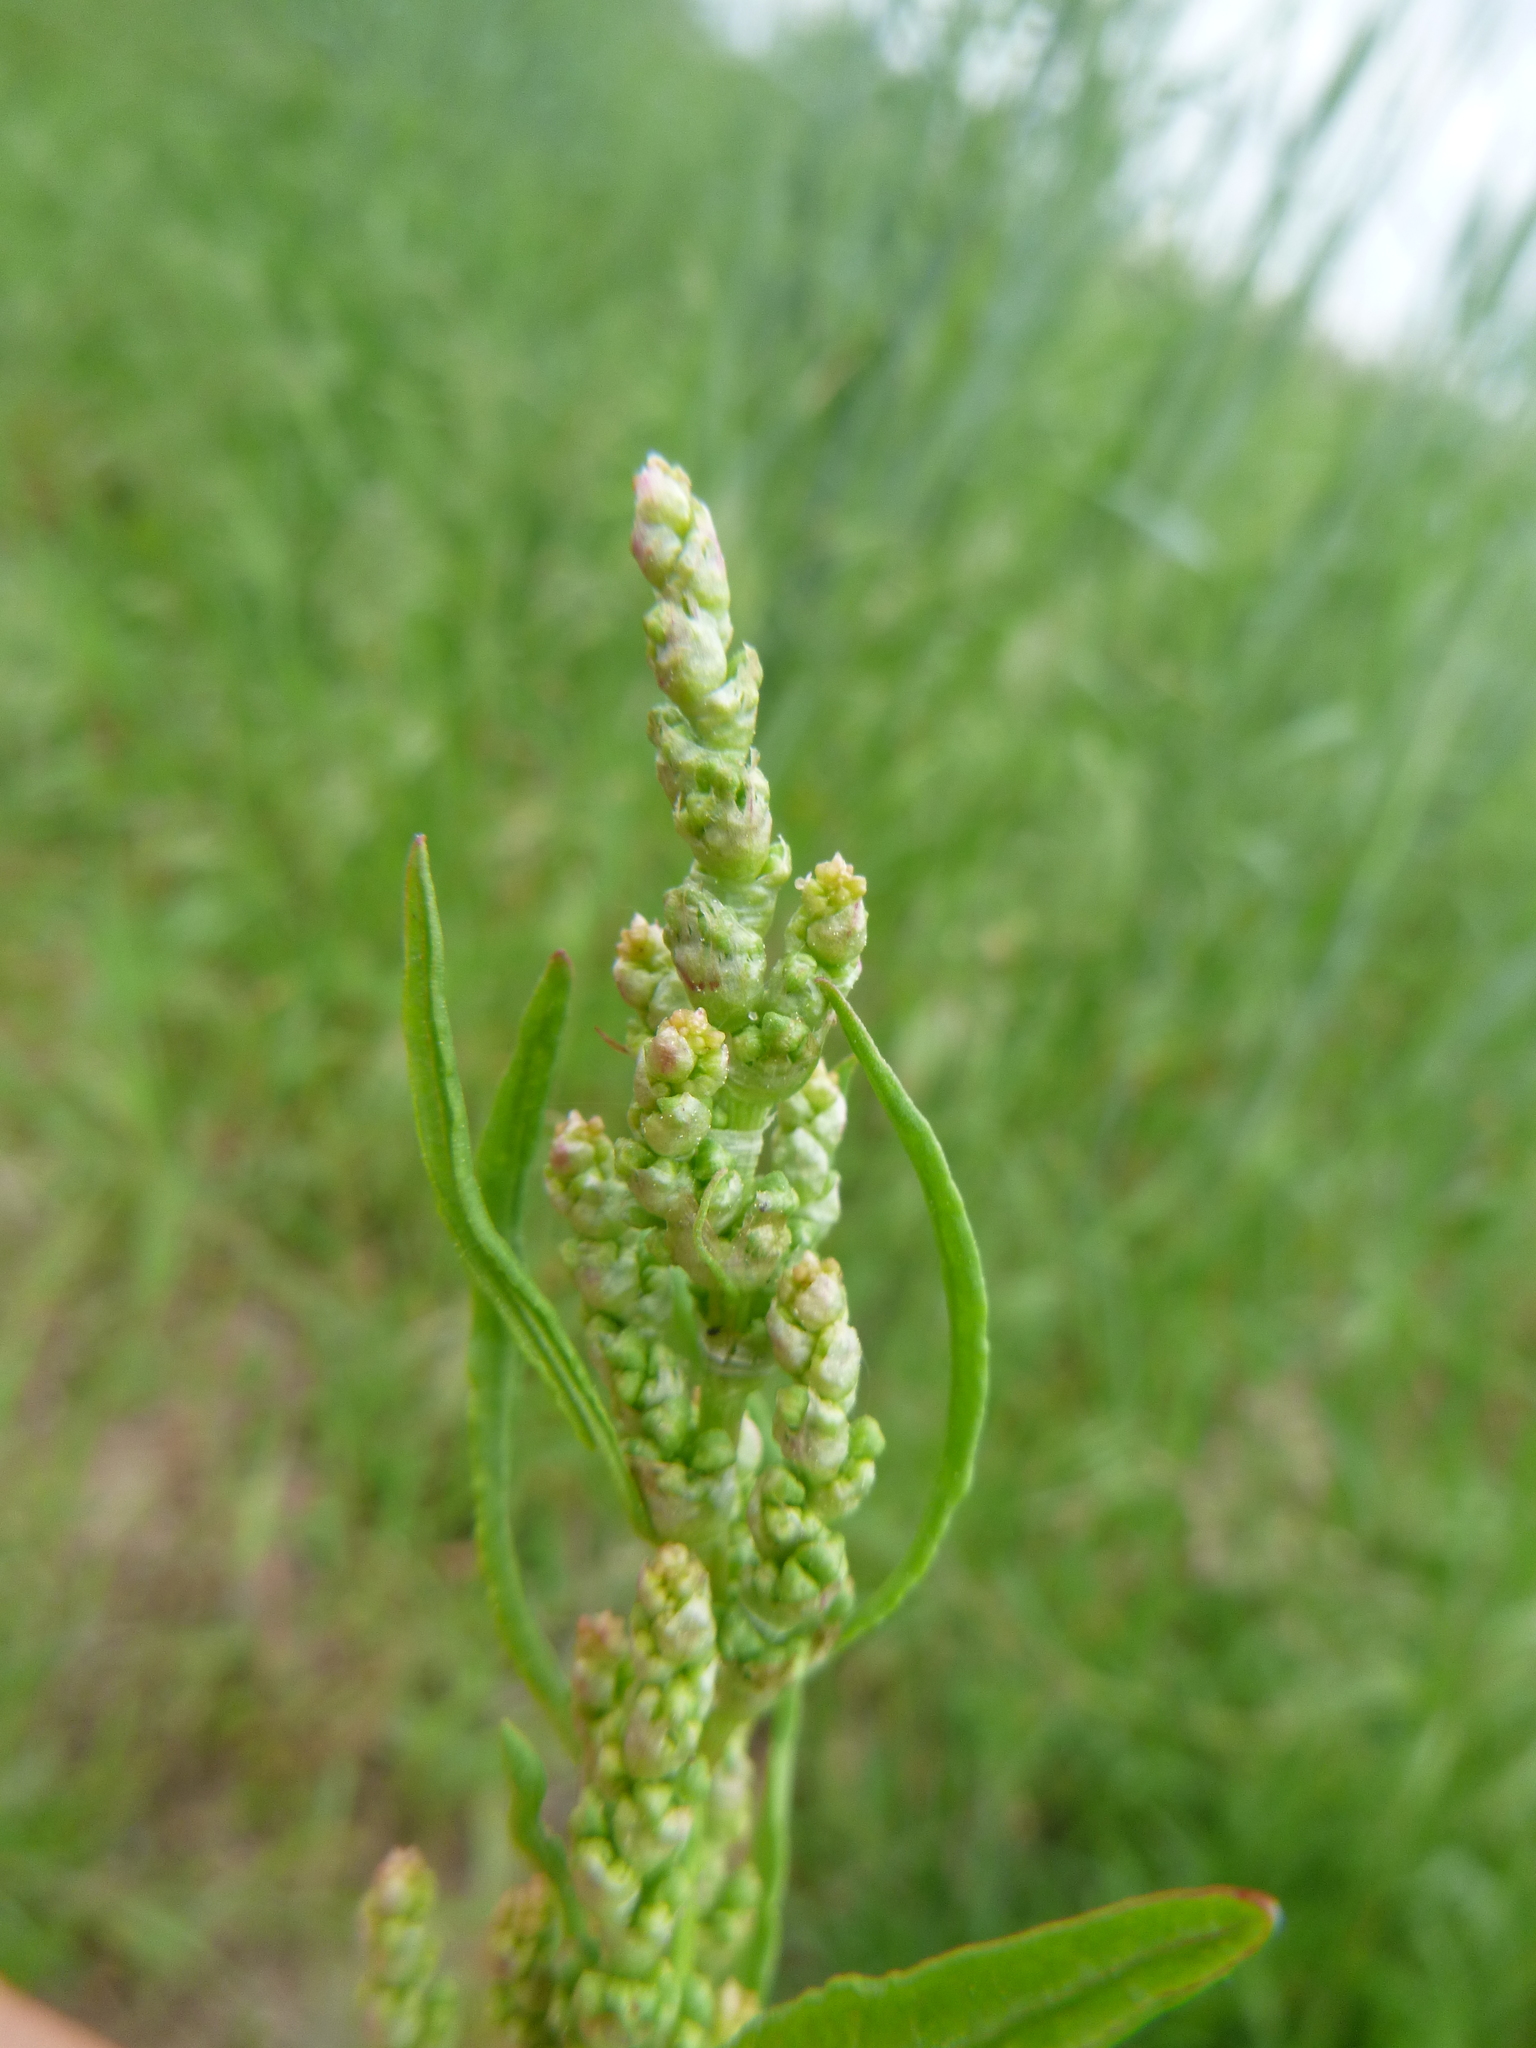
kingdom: Plantae
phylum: Tracheophyta
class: Magnoliopsida
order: Caryophyllales
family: Polygonaceae
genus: Rumex
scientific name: Rumex crispus
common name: Curled dock
